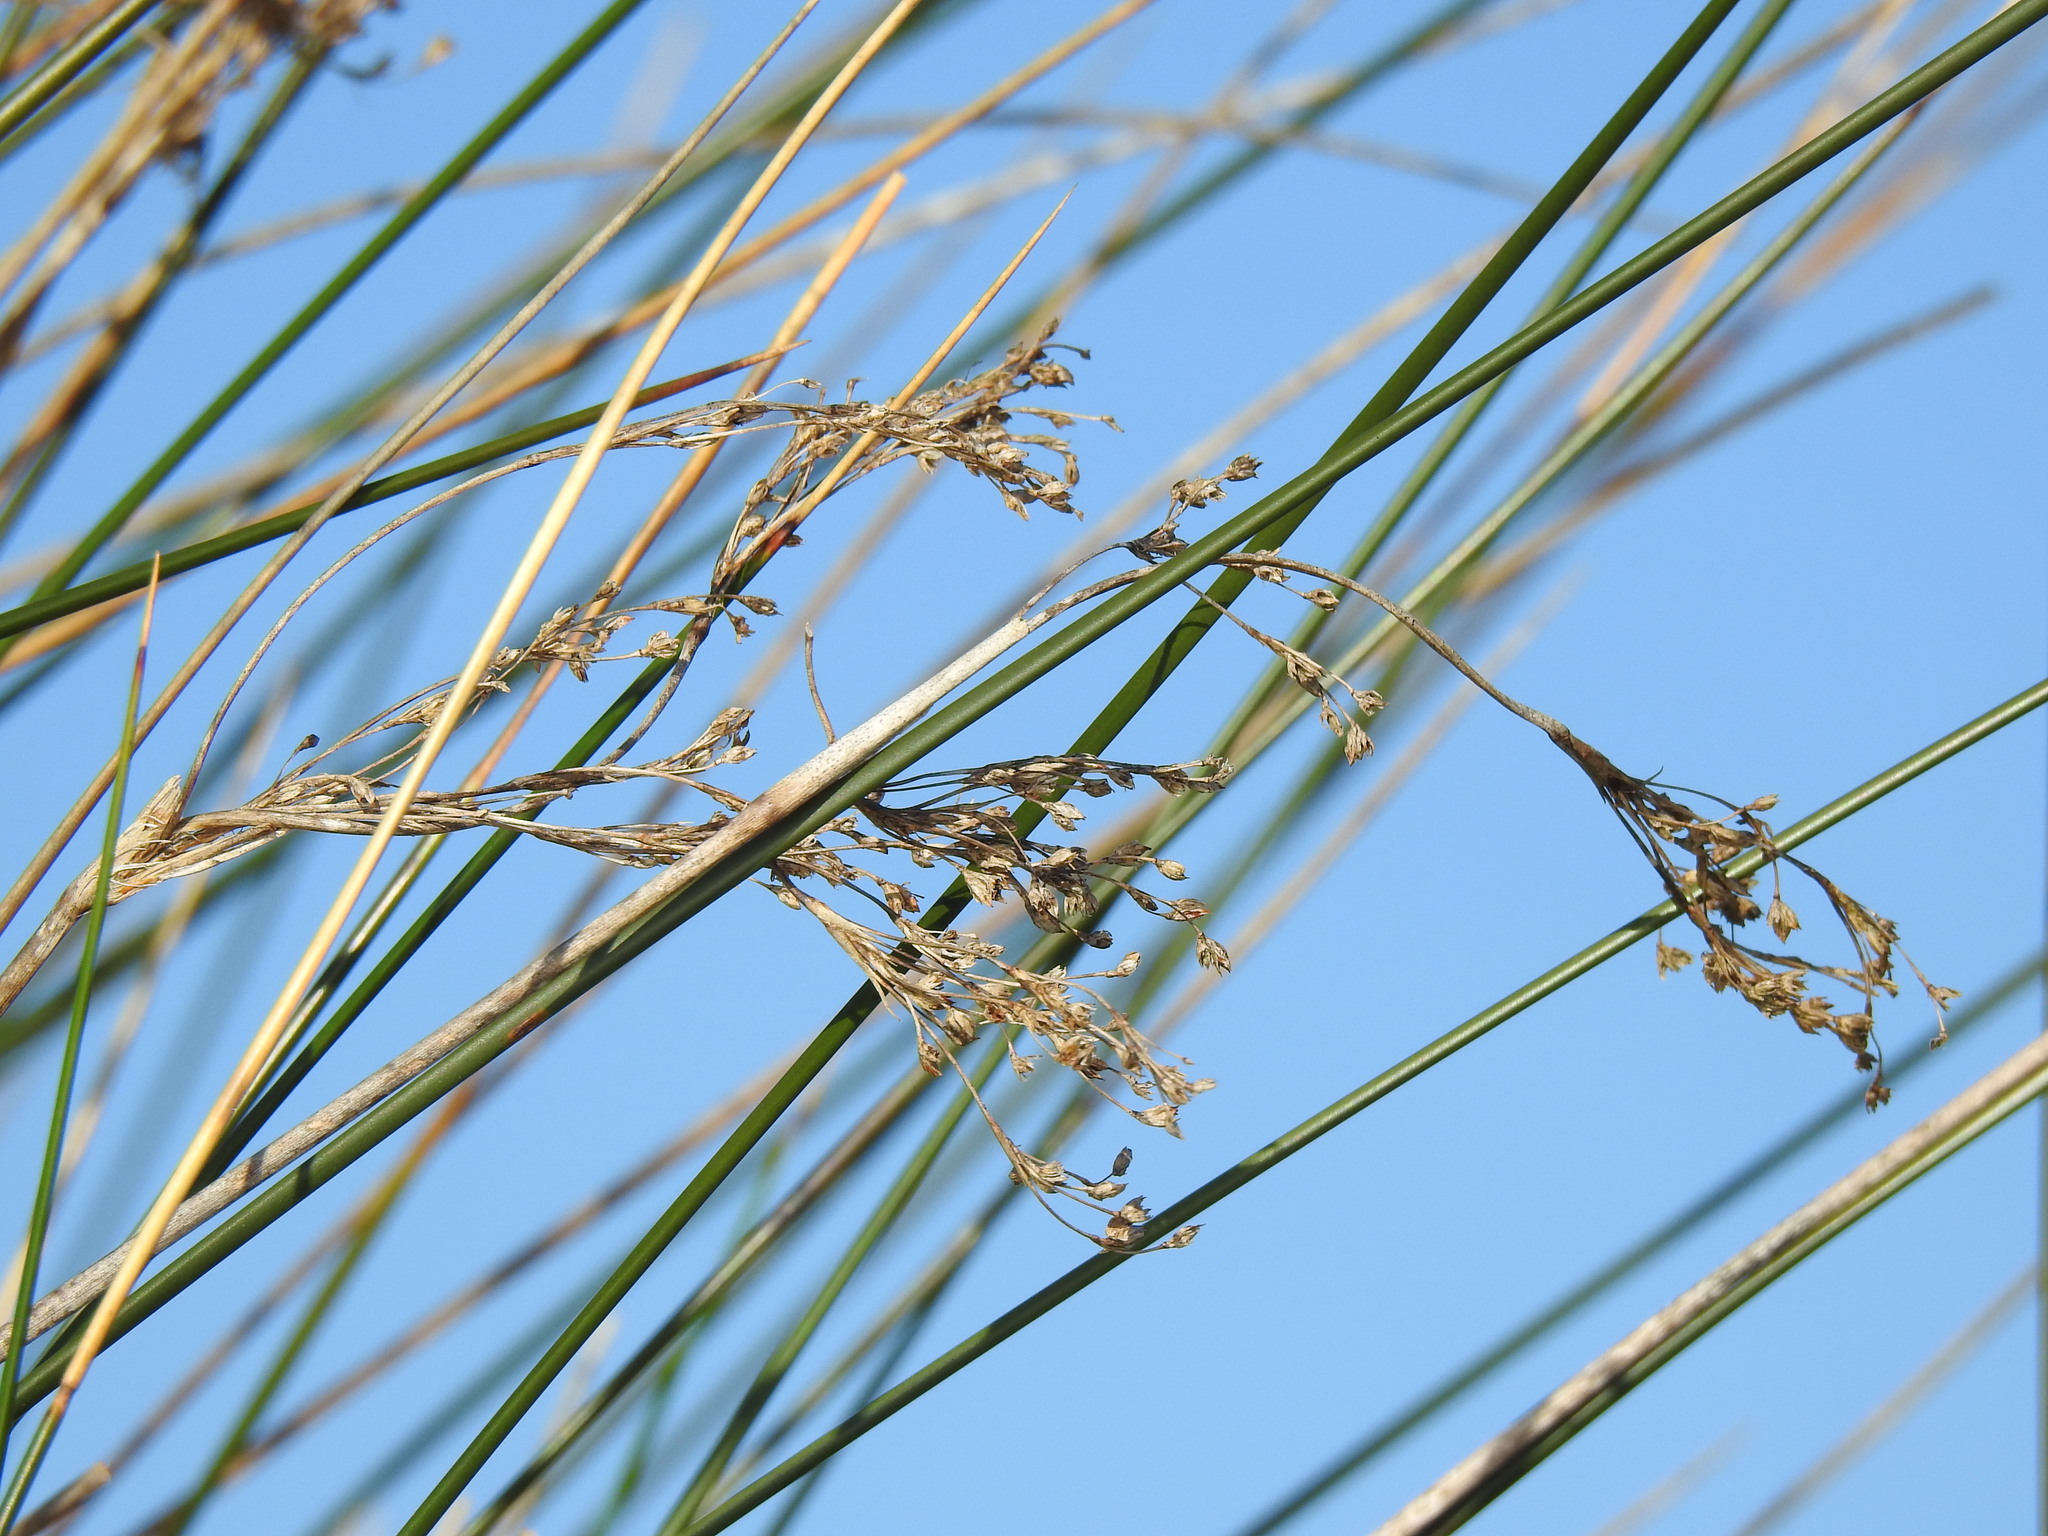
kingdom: Plantae
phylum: Tracheophyta
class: Liliopsida
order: Poales
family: Juncaceae
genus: Juncus
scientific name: Juncus maritimus
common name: Sea rush
